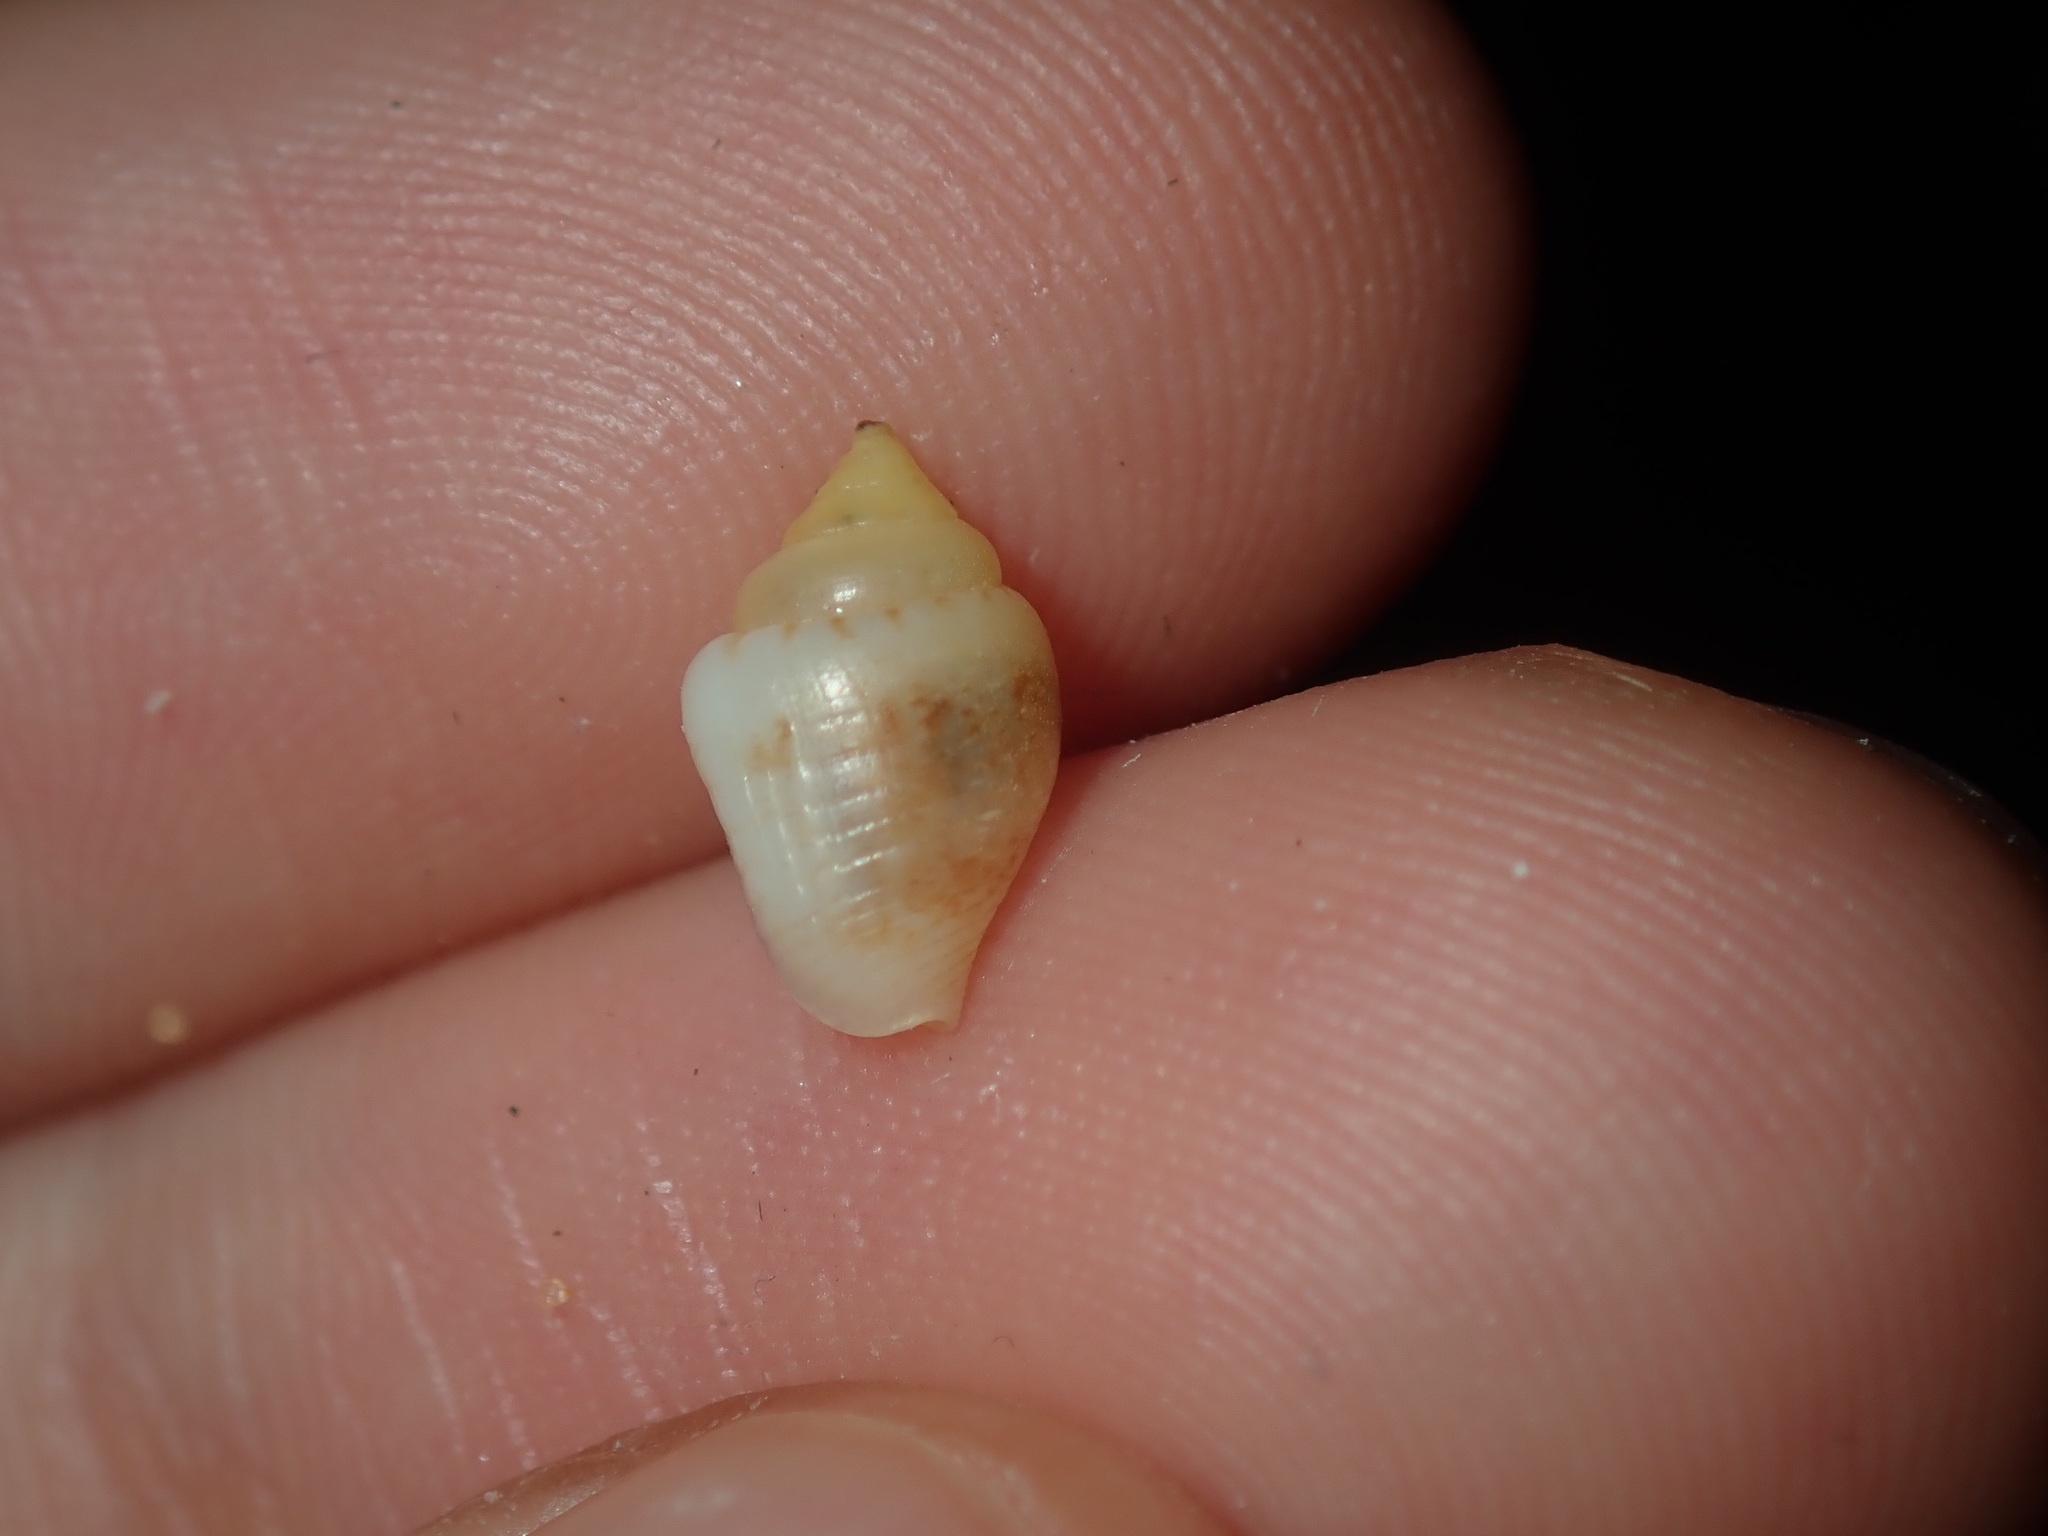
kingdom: Animalia
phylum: Mollusca
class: Gastropoda
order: Neogastropoda
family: Columbellidae
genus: Euplica
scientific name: Euplica varians
